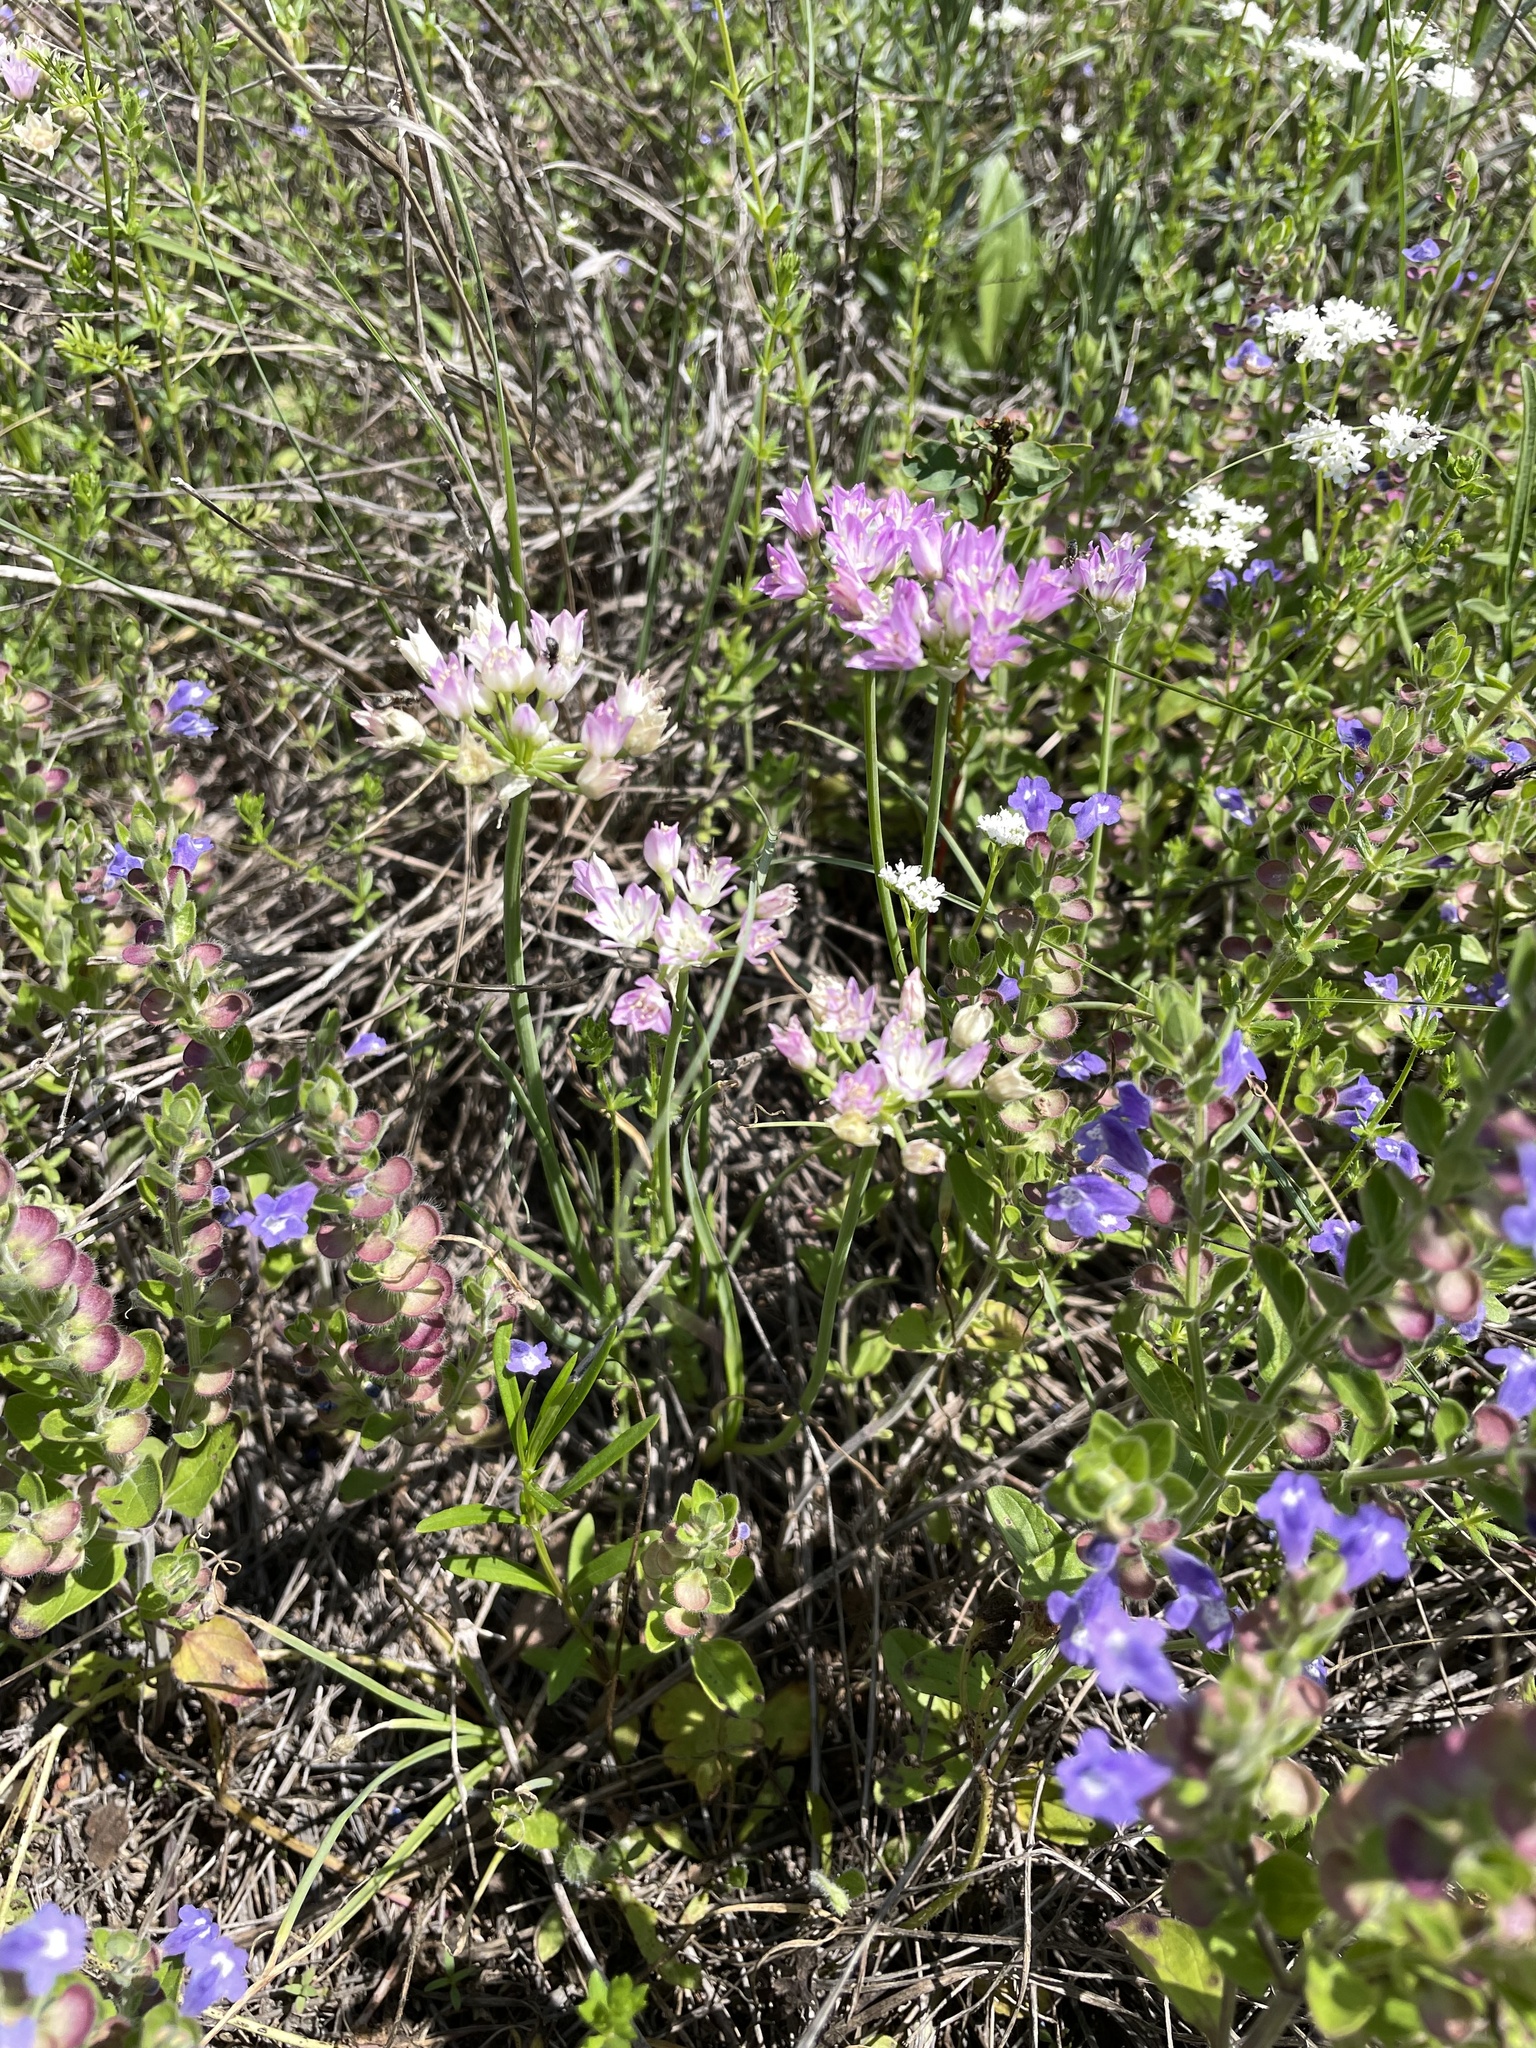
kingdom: Plantae
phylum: Tracheophyta
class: Liliopsida
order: Asparagales
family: Amaryllidaceae
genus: Allium
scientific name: Allium drummondii
